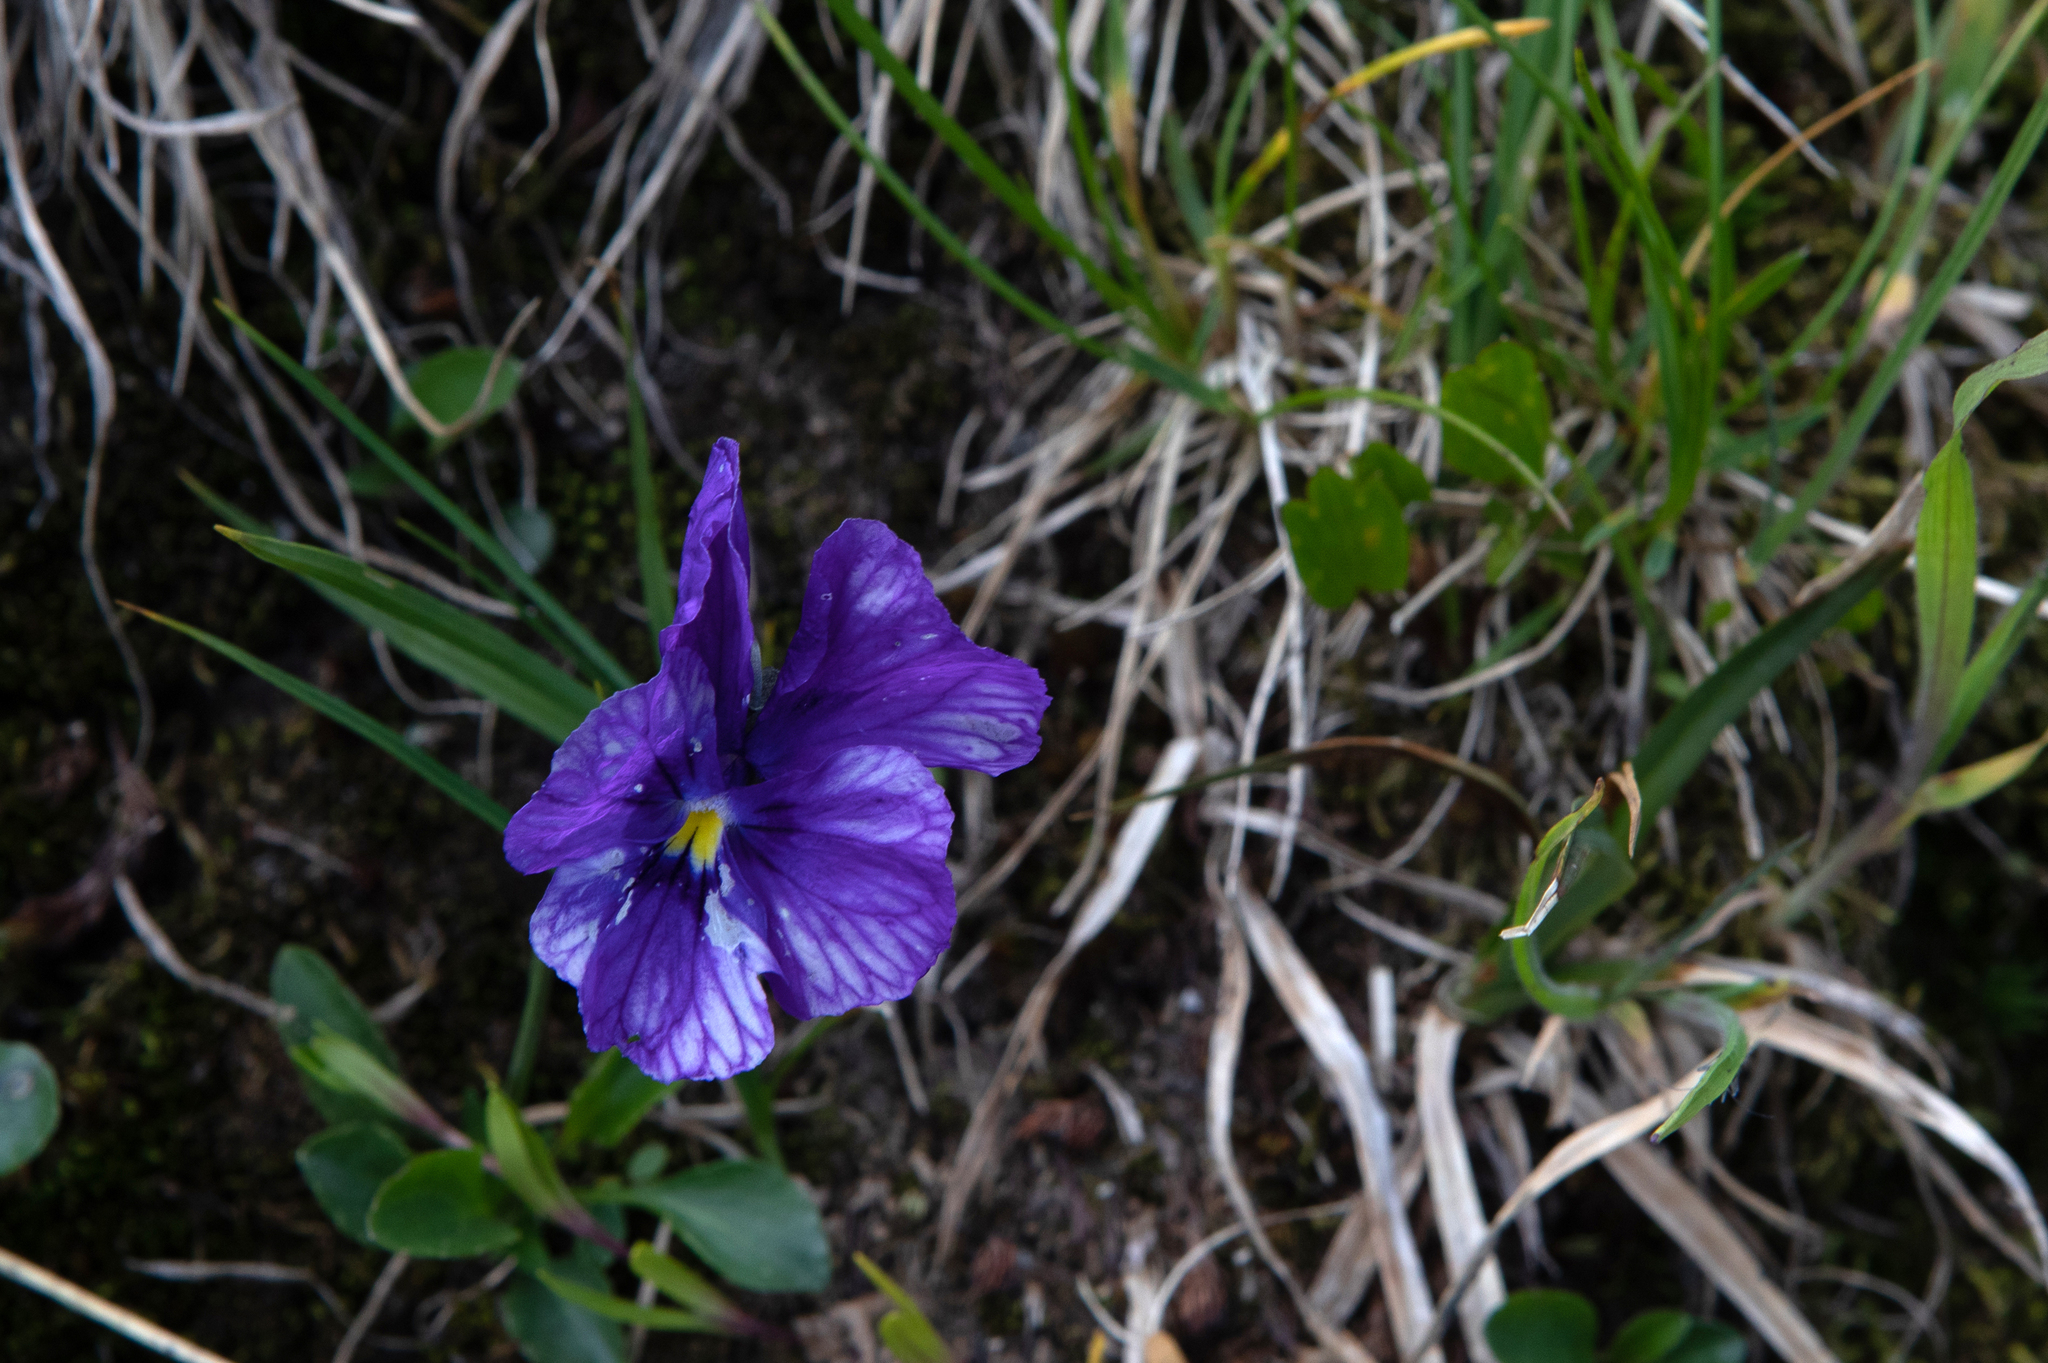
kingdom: Plantae
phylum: Tracheophyta
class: Magnoliopsida
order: Malpighiales
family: Violaceae
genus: Viola
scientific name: Viola altaica
